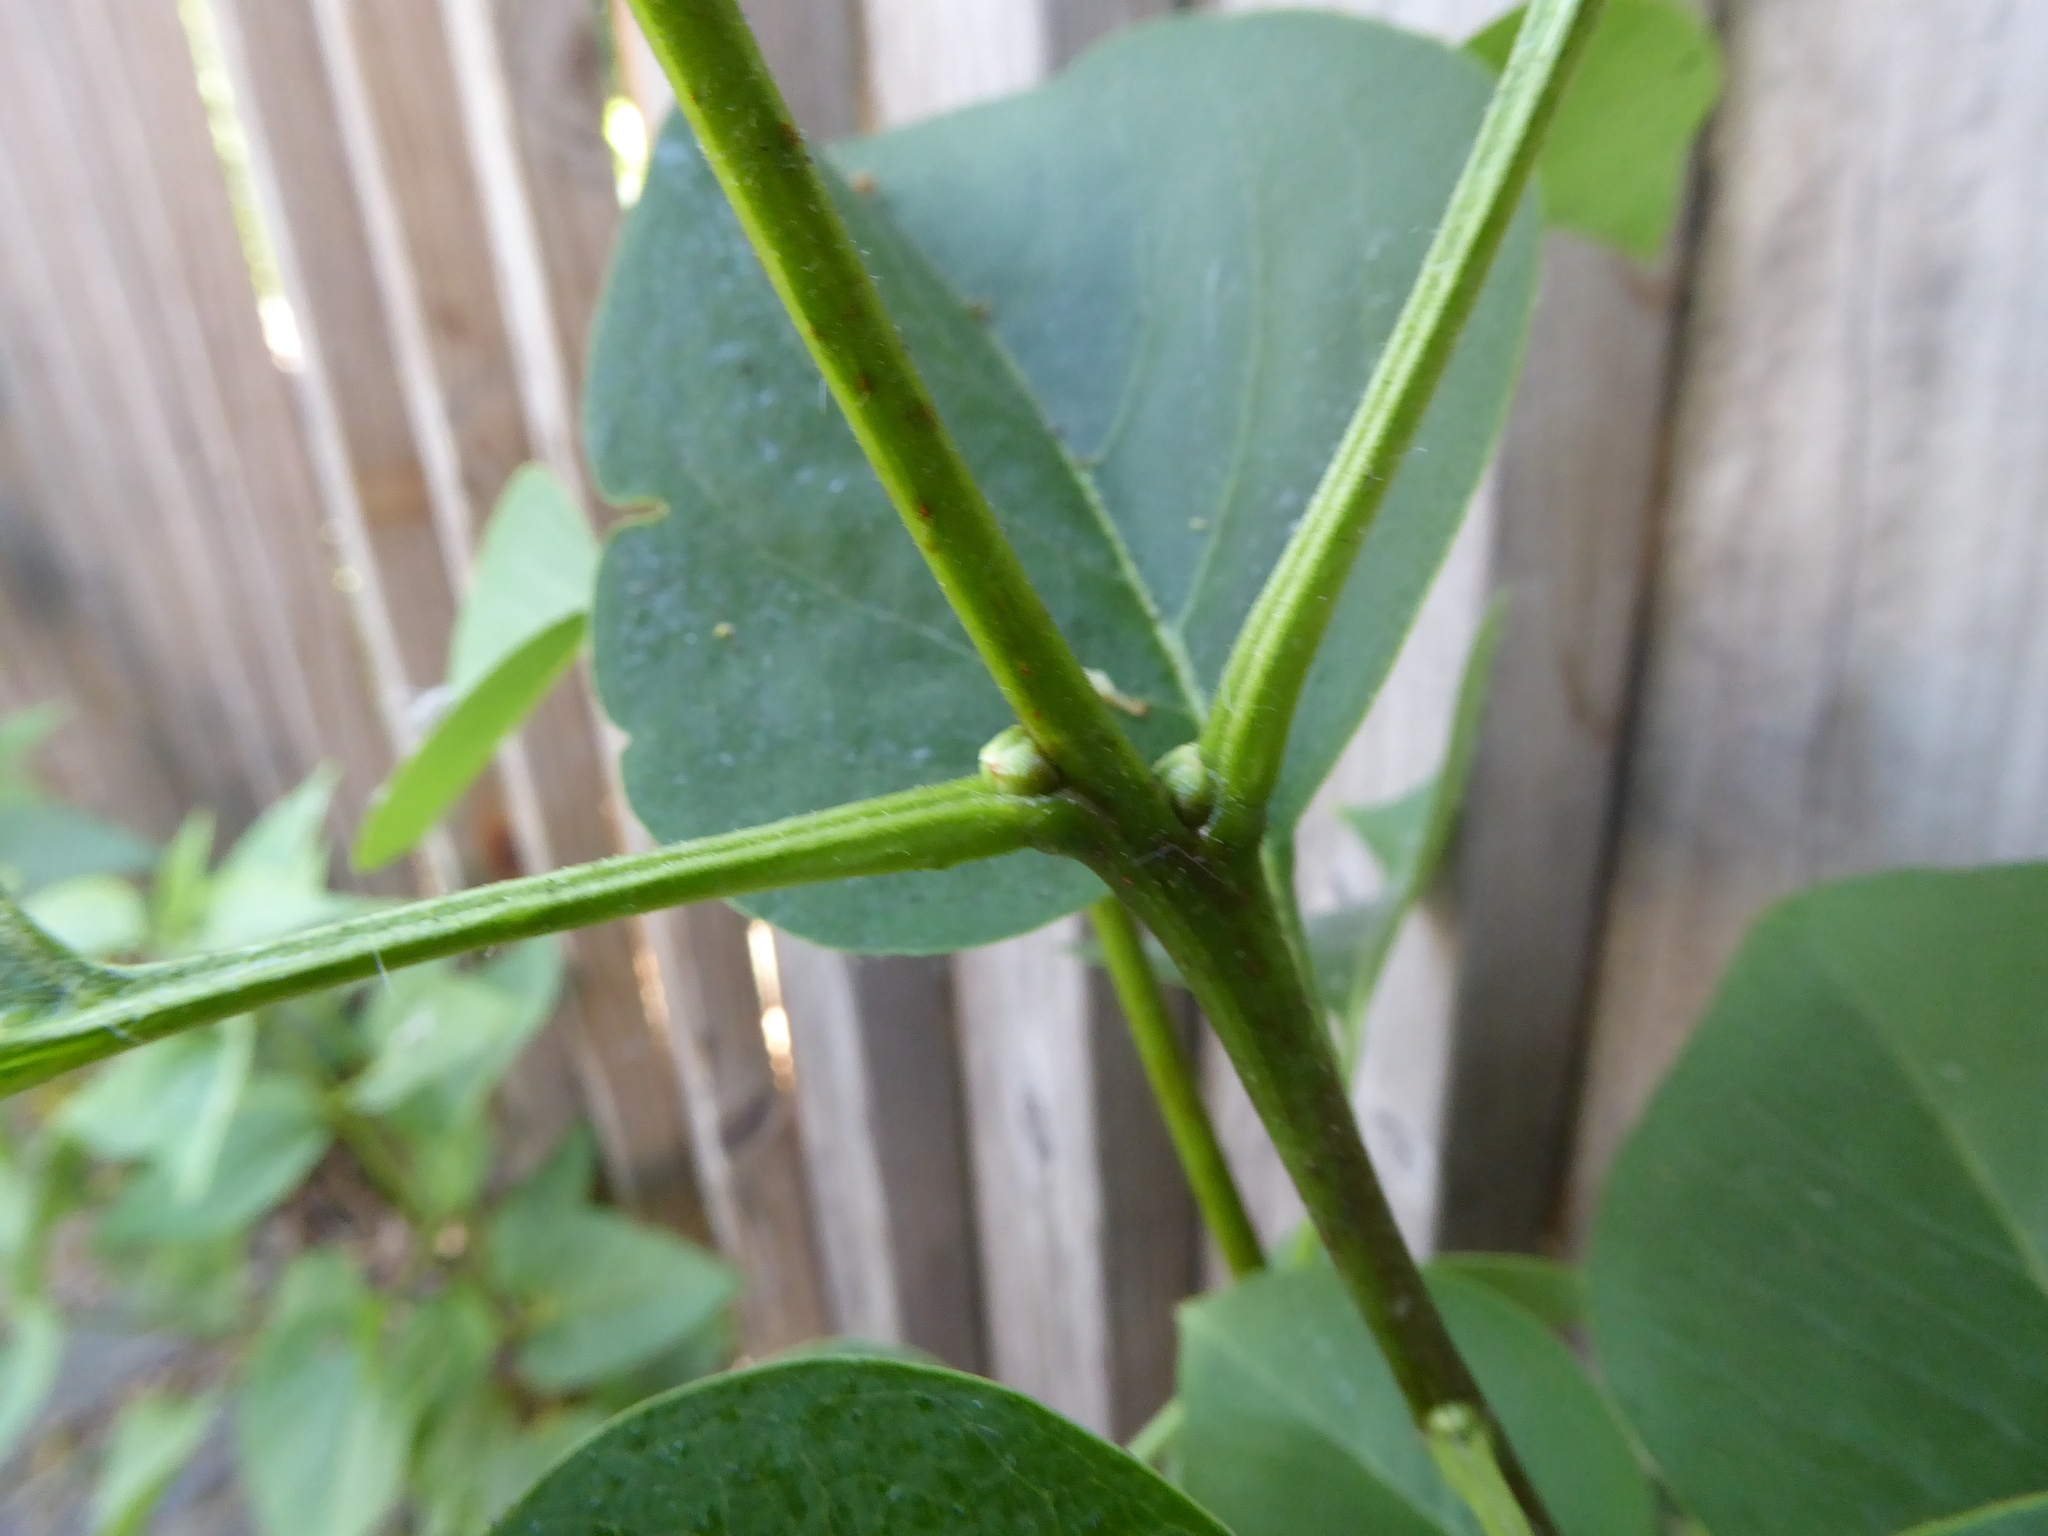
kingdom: Plantae
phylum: Tracheophyta
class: Magnoliopsida
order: Lamiales
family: Oleaceae
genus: Syringa
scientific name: Syringa vulgaris
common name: Common lilac
